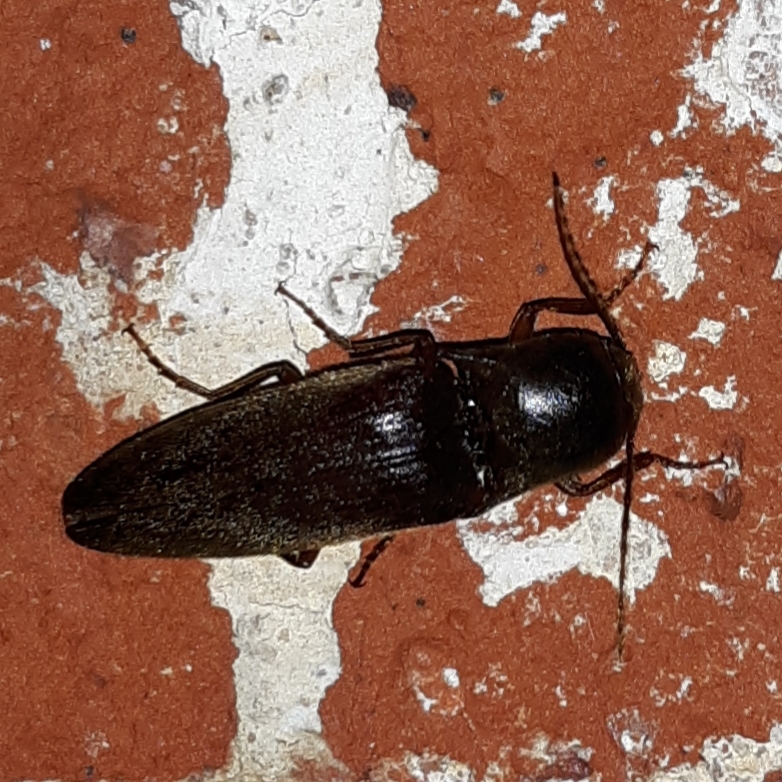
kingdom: Animalia
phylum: Arthropoda
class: Insecta
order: Coleoptera
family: Elateridae
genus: Diplostethus
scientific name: Diplostethus
